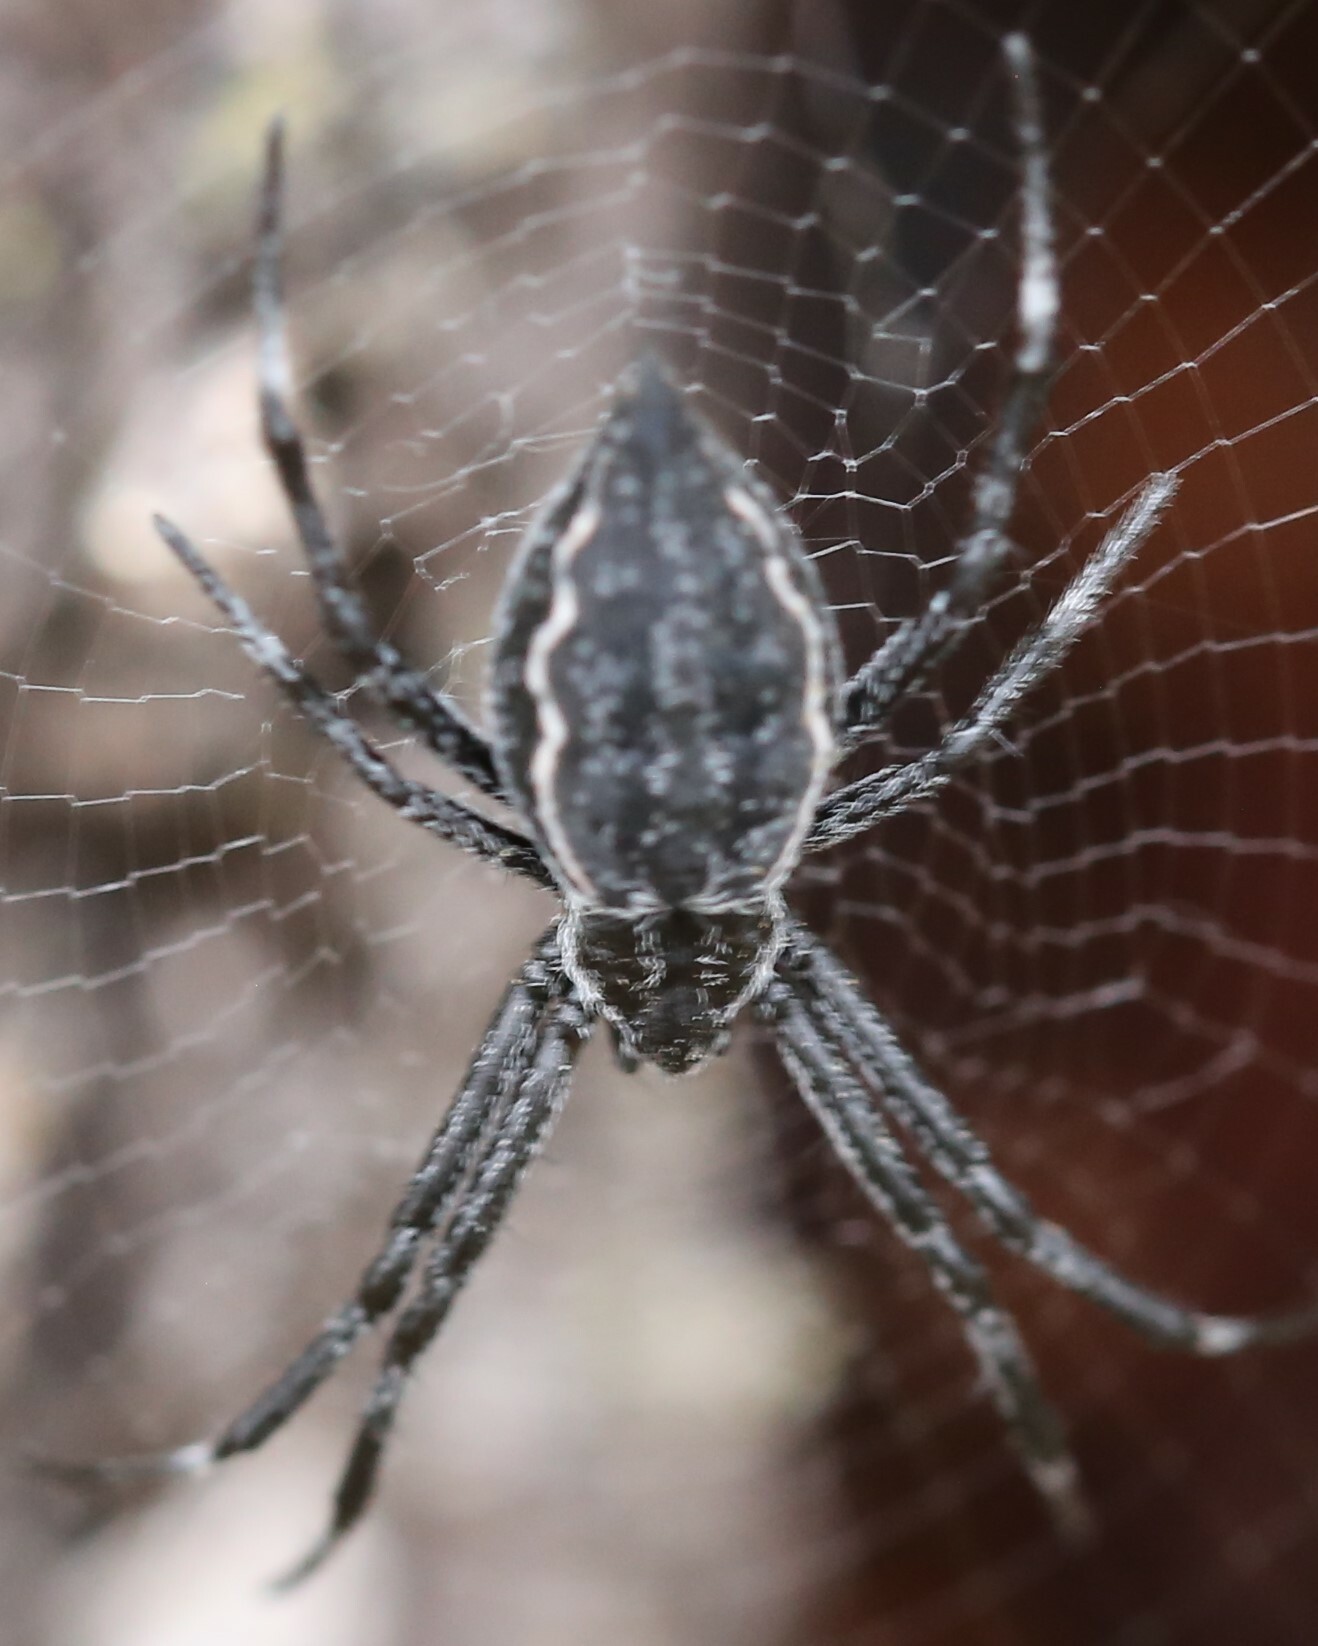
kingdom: Animalia
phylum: Arthropoda
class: Arachnida
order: Araneae
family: Araneidae
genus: Argiope
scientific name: Argiope ocyaloides
